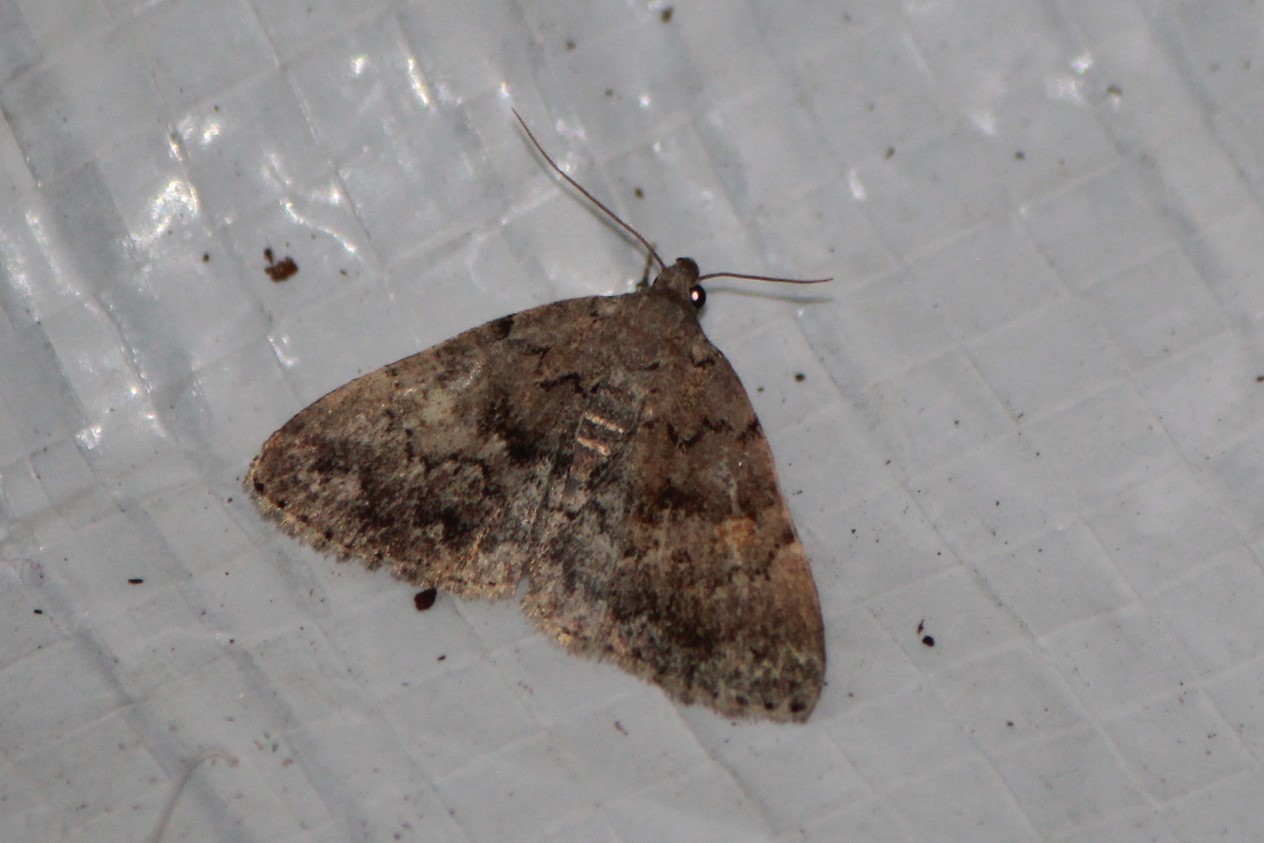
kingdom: Animalia
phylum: Arthropoda
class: Insecta
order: Lepidoptera
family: Erebidae
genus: Idia
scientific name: Idia aemula
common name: Common idia moth
